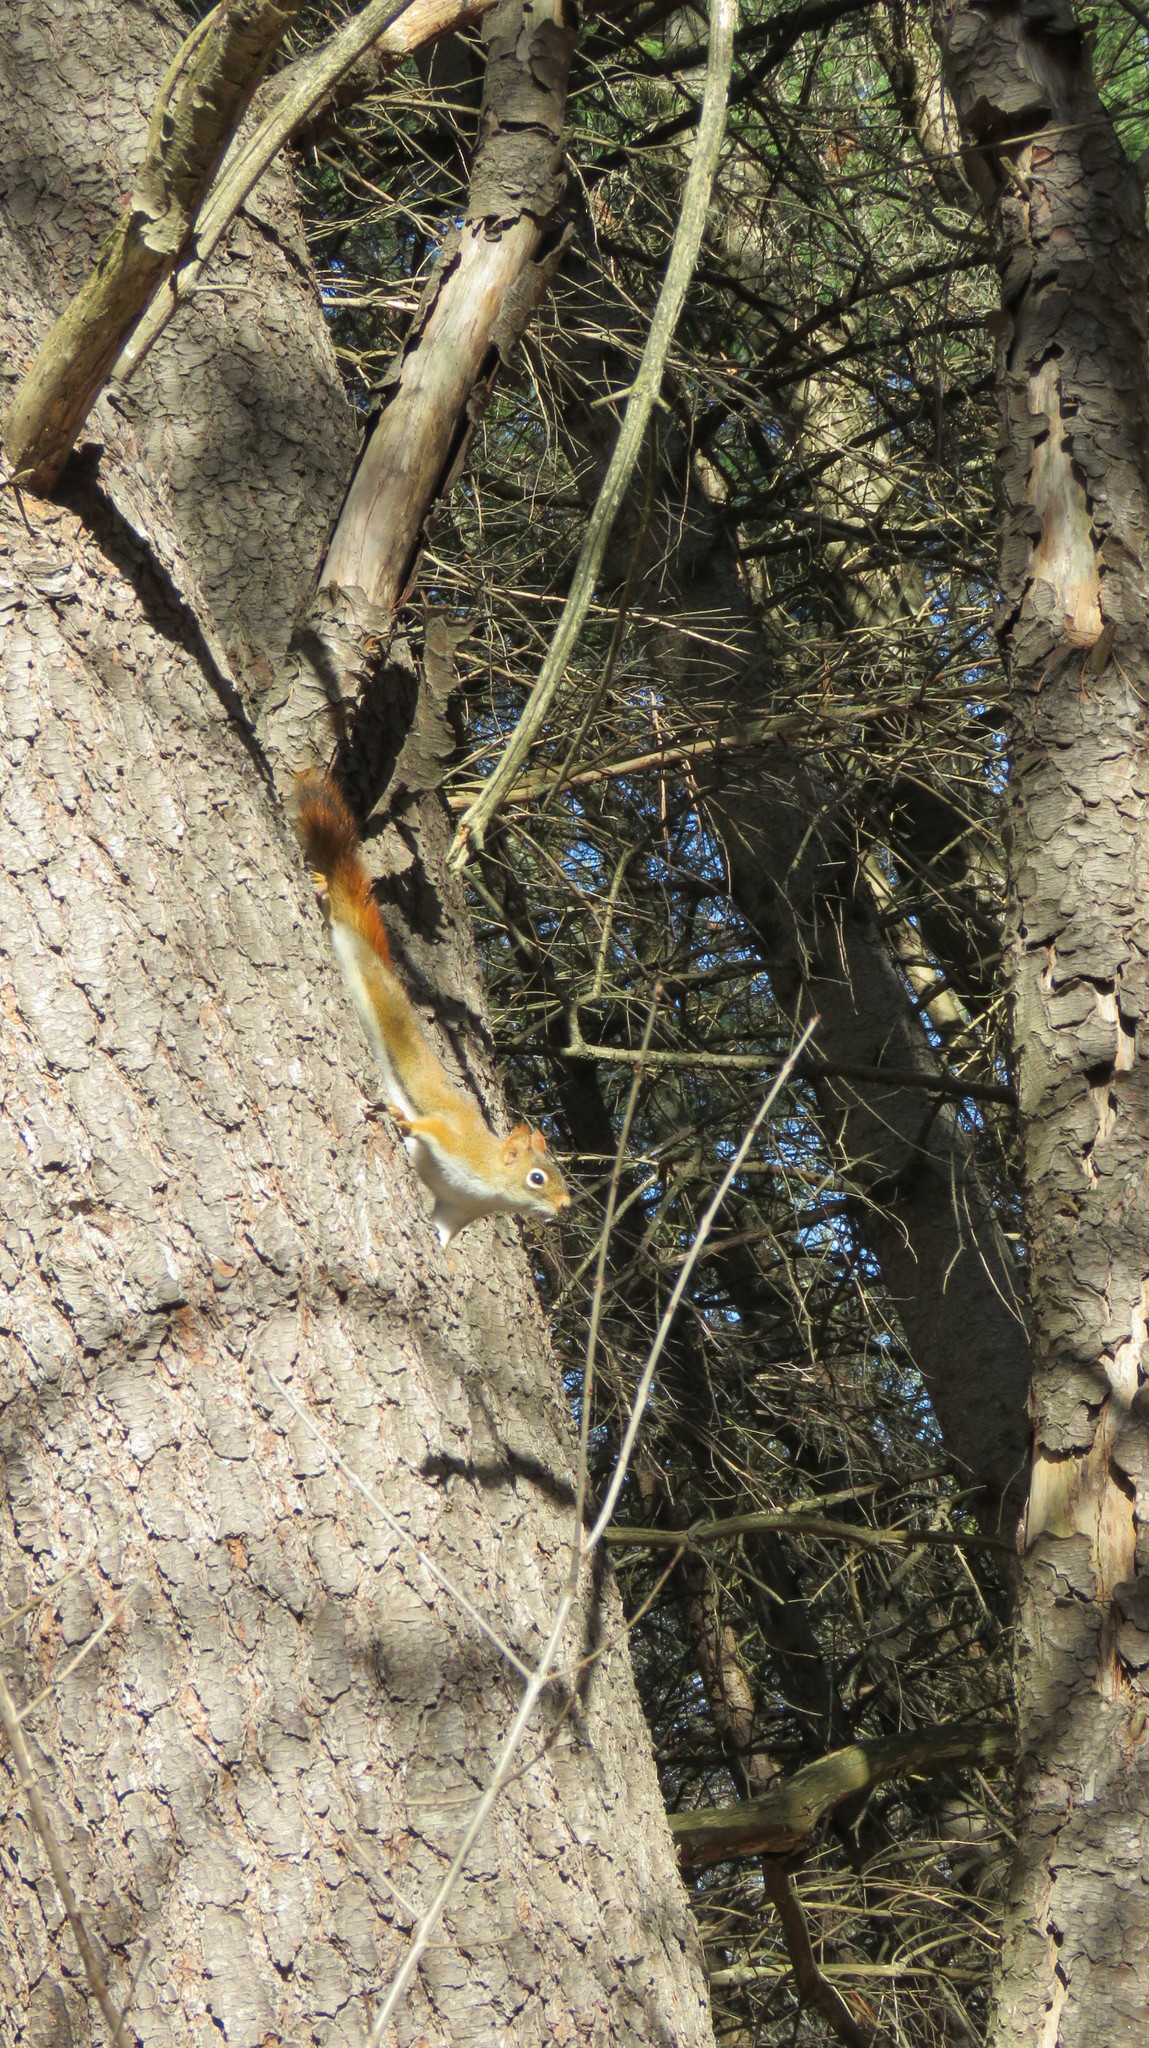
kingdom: Animalia
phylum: Chordata
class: Mammalia
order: Rodentia
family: Sciuridae
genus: Tamiasciurus
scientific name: Tamiasciurus hudsonicus
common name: Red squirrel
